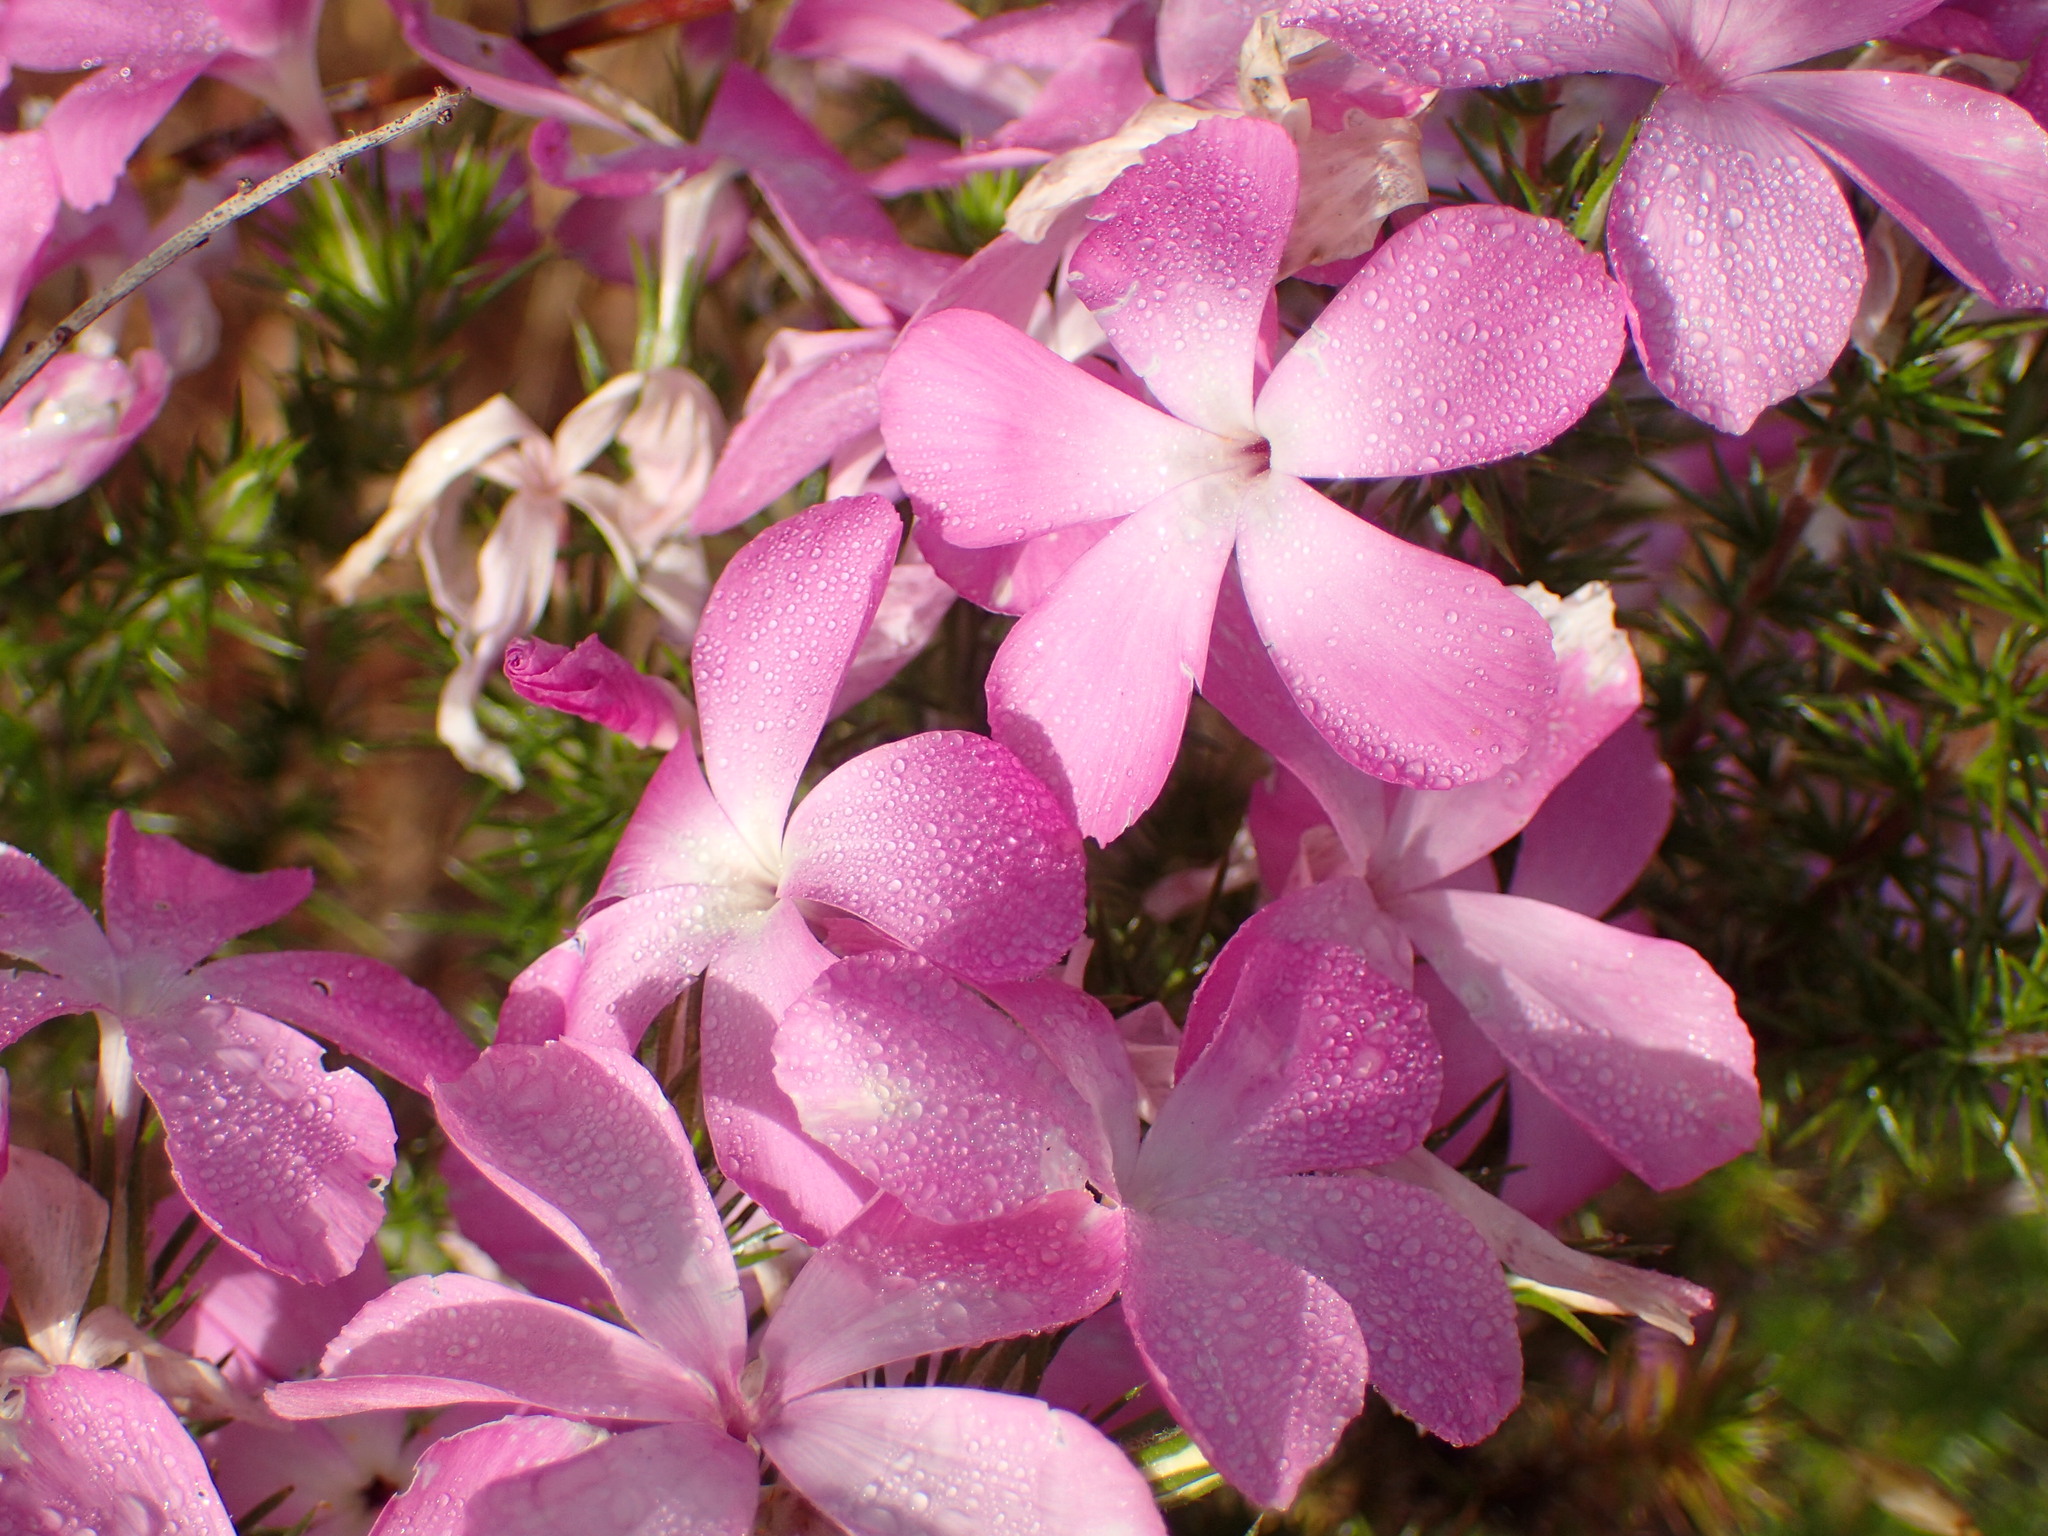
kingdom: Plantae
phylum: Tracheophyta
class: Magnoliopsida
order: Ericales
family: Polemoniaceae
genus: Linanthus
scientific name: Linanthus californicus
